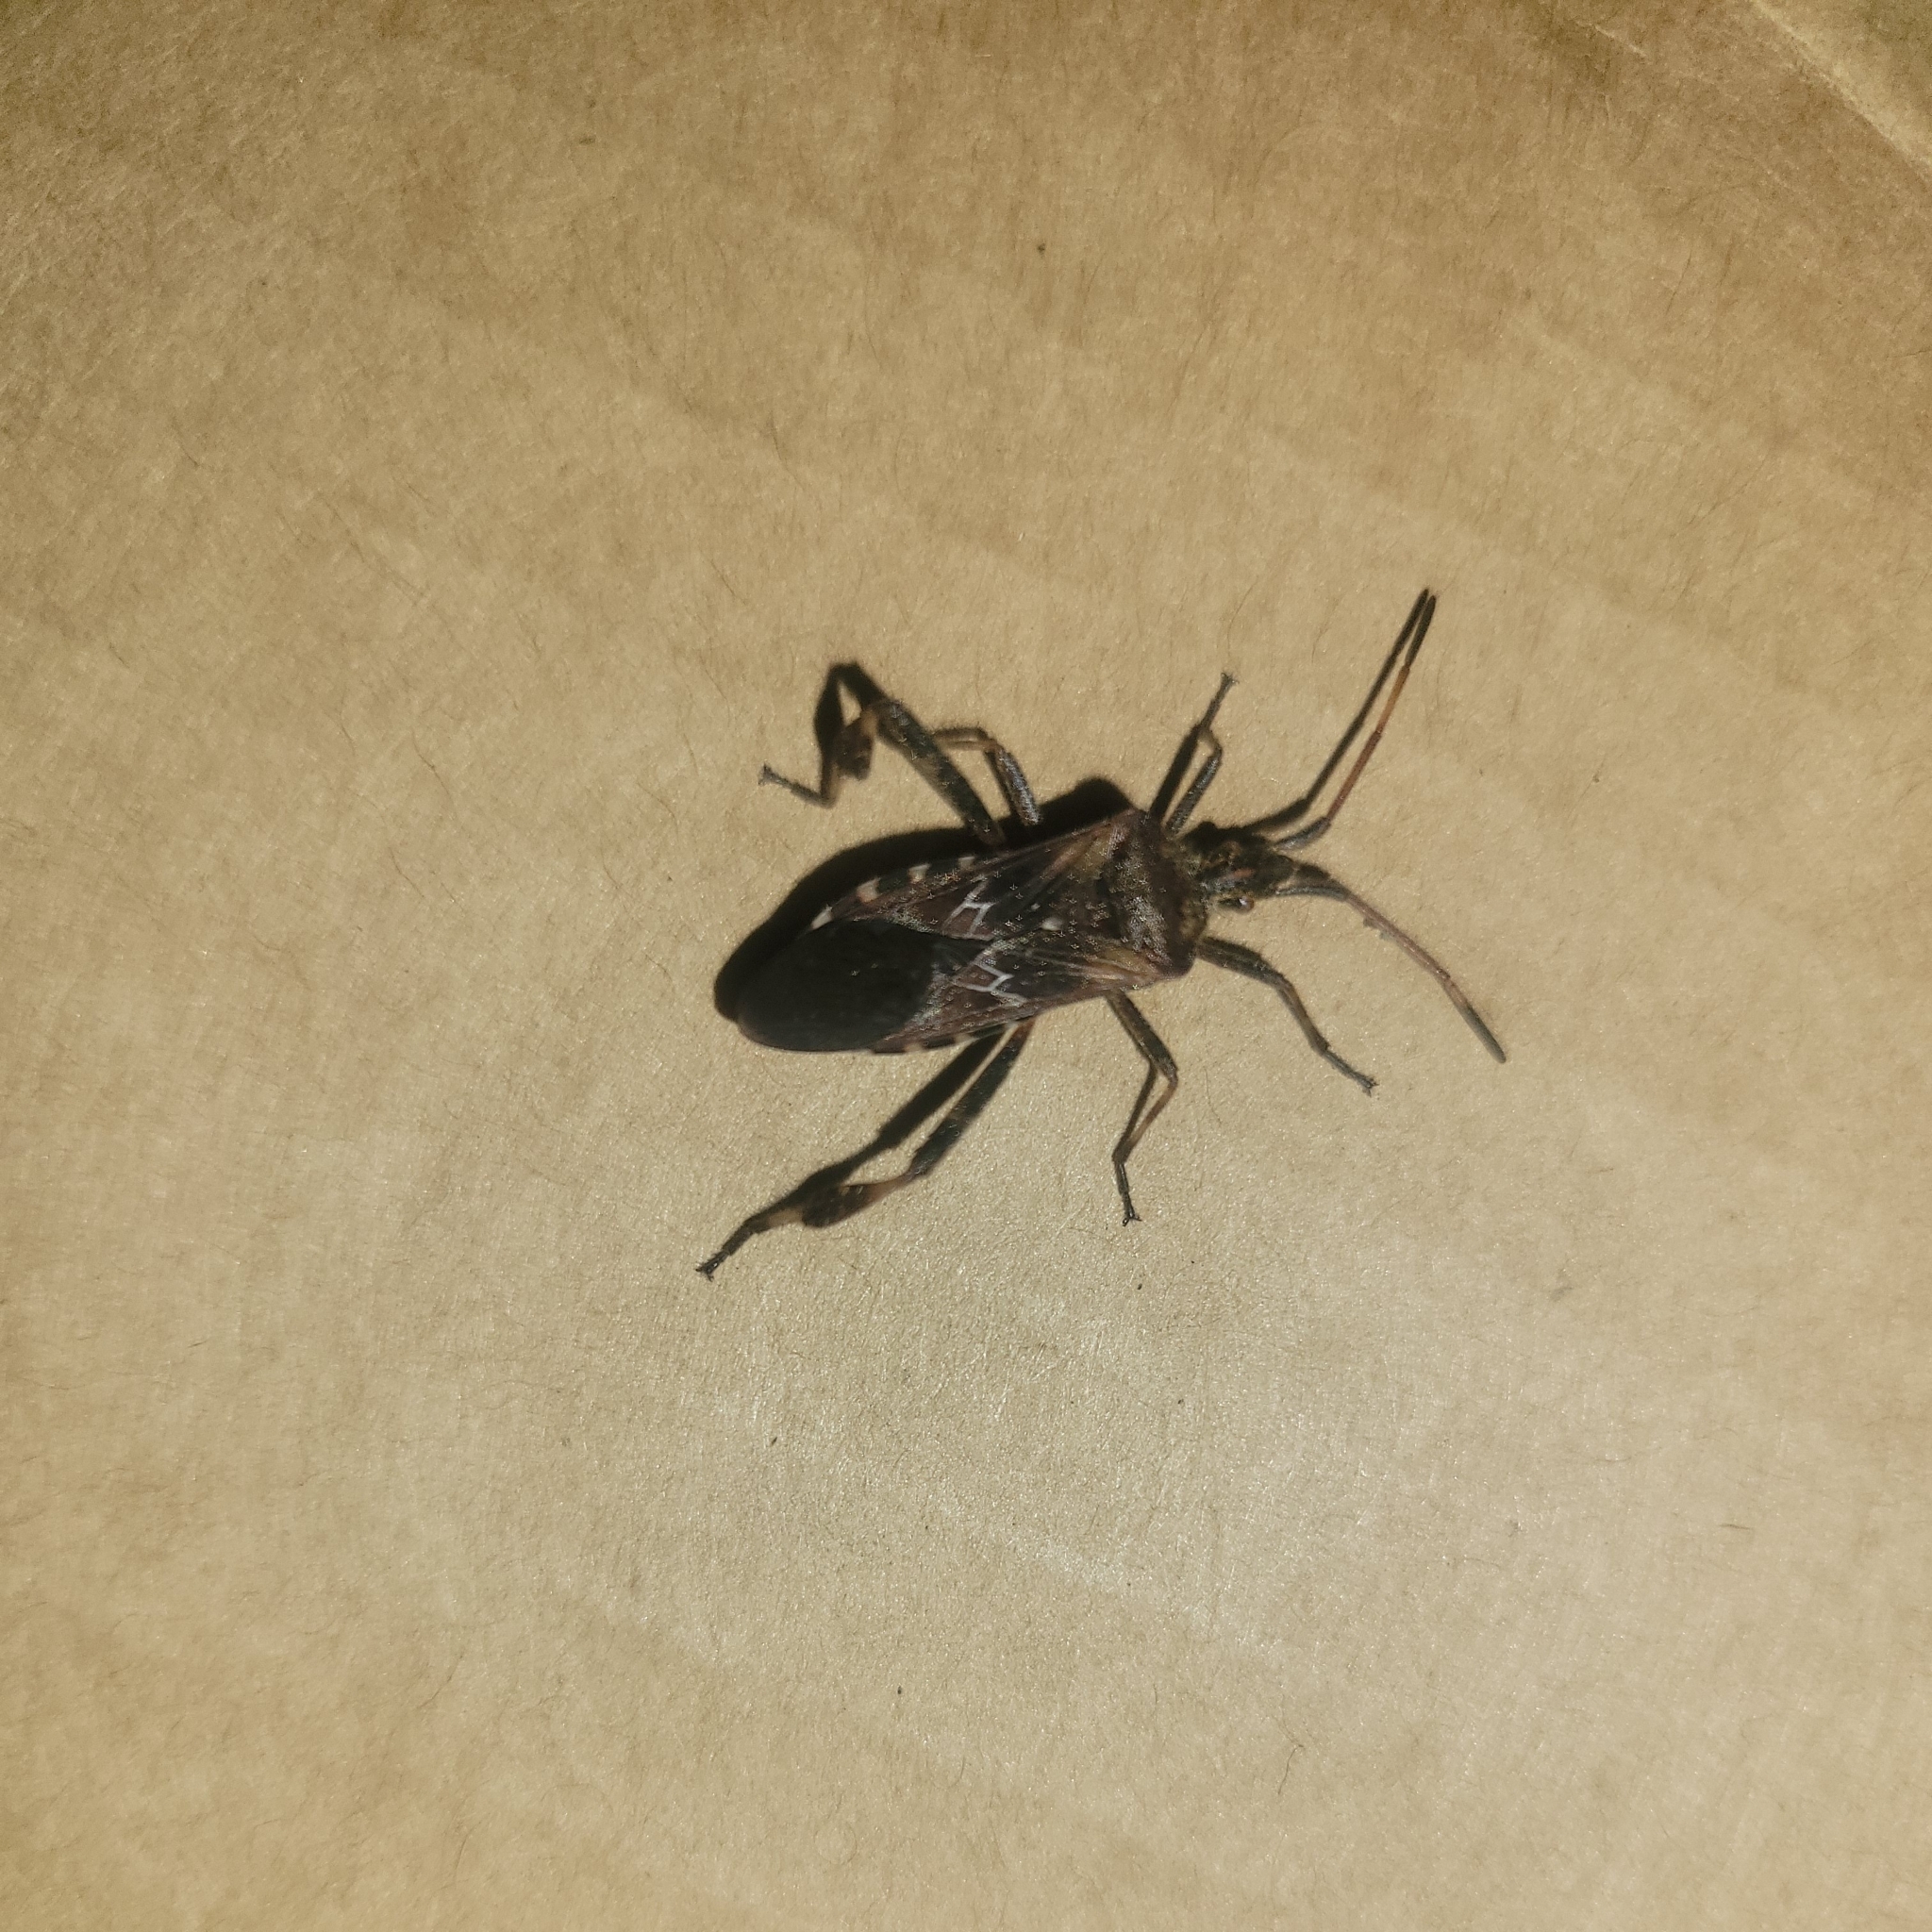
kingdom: Animalia
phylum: Arthropoda
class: Insecta
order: Hemiptera
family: Coreidae
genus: Leptoglossus
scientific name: Leptoglossus occidentalis
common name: Western conifer-seed bug
